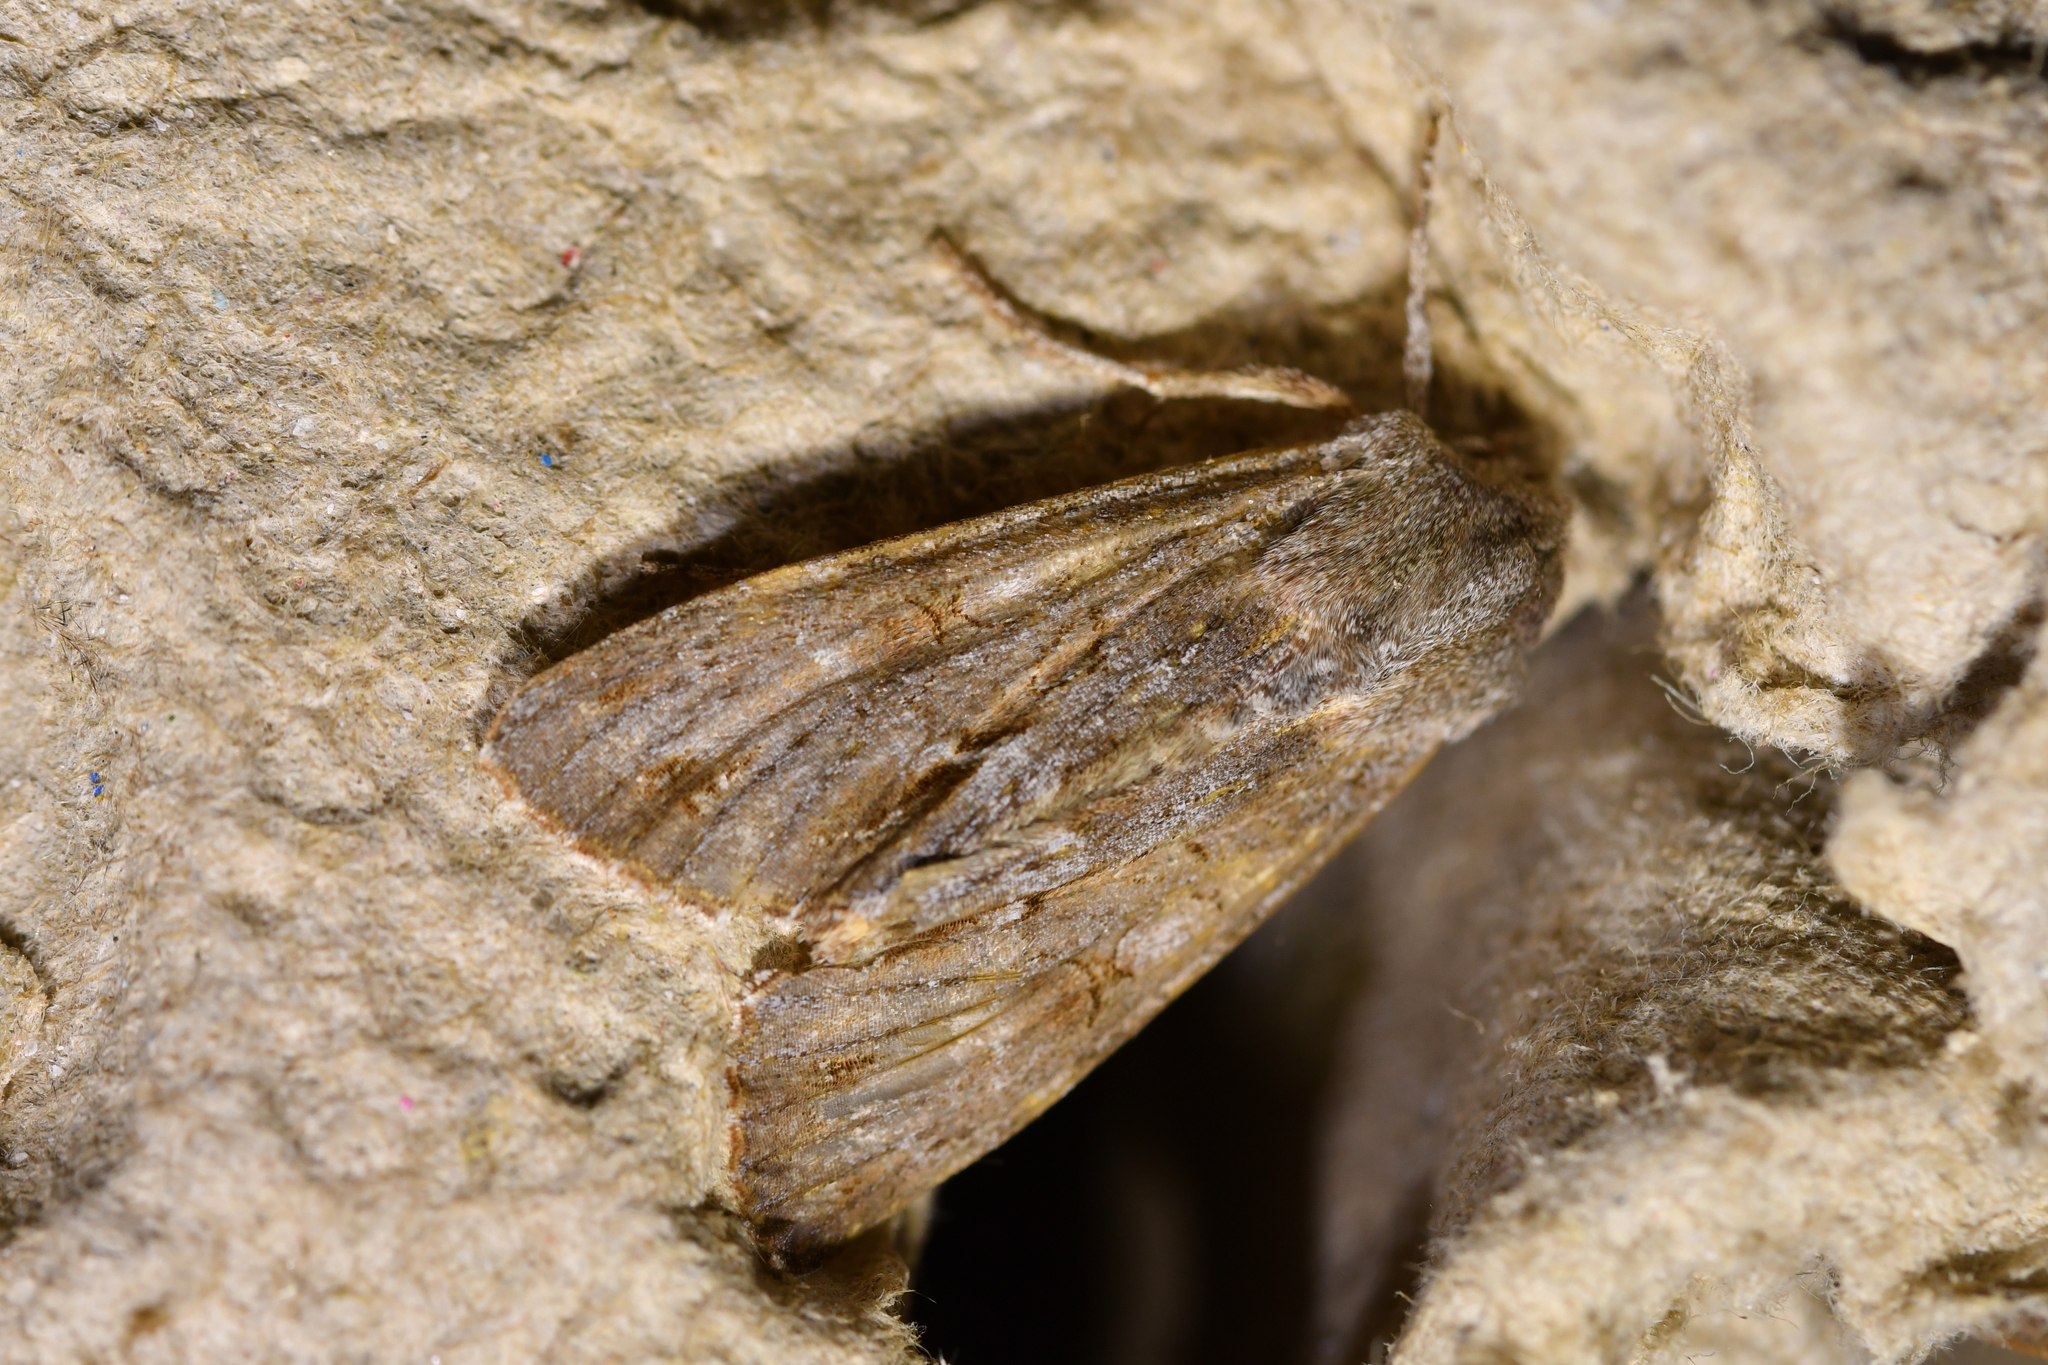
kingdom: Animalia
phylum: Arthropoda
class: Insecta
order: Lepidoptera
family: Noctuidae
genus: Ichneutica
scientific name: Ichneutica
